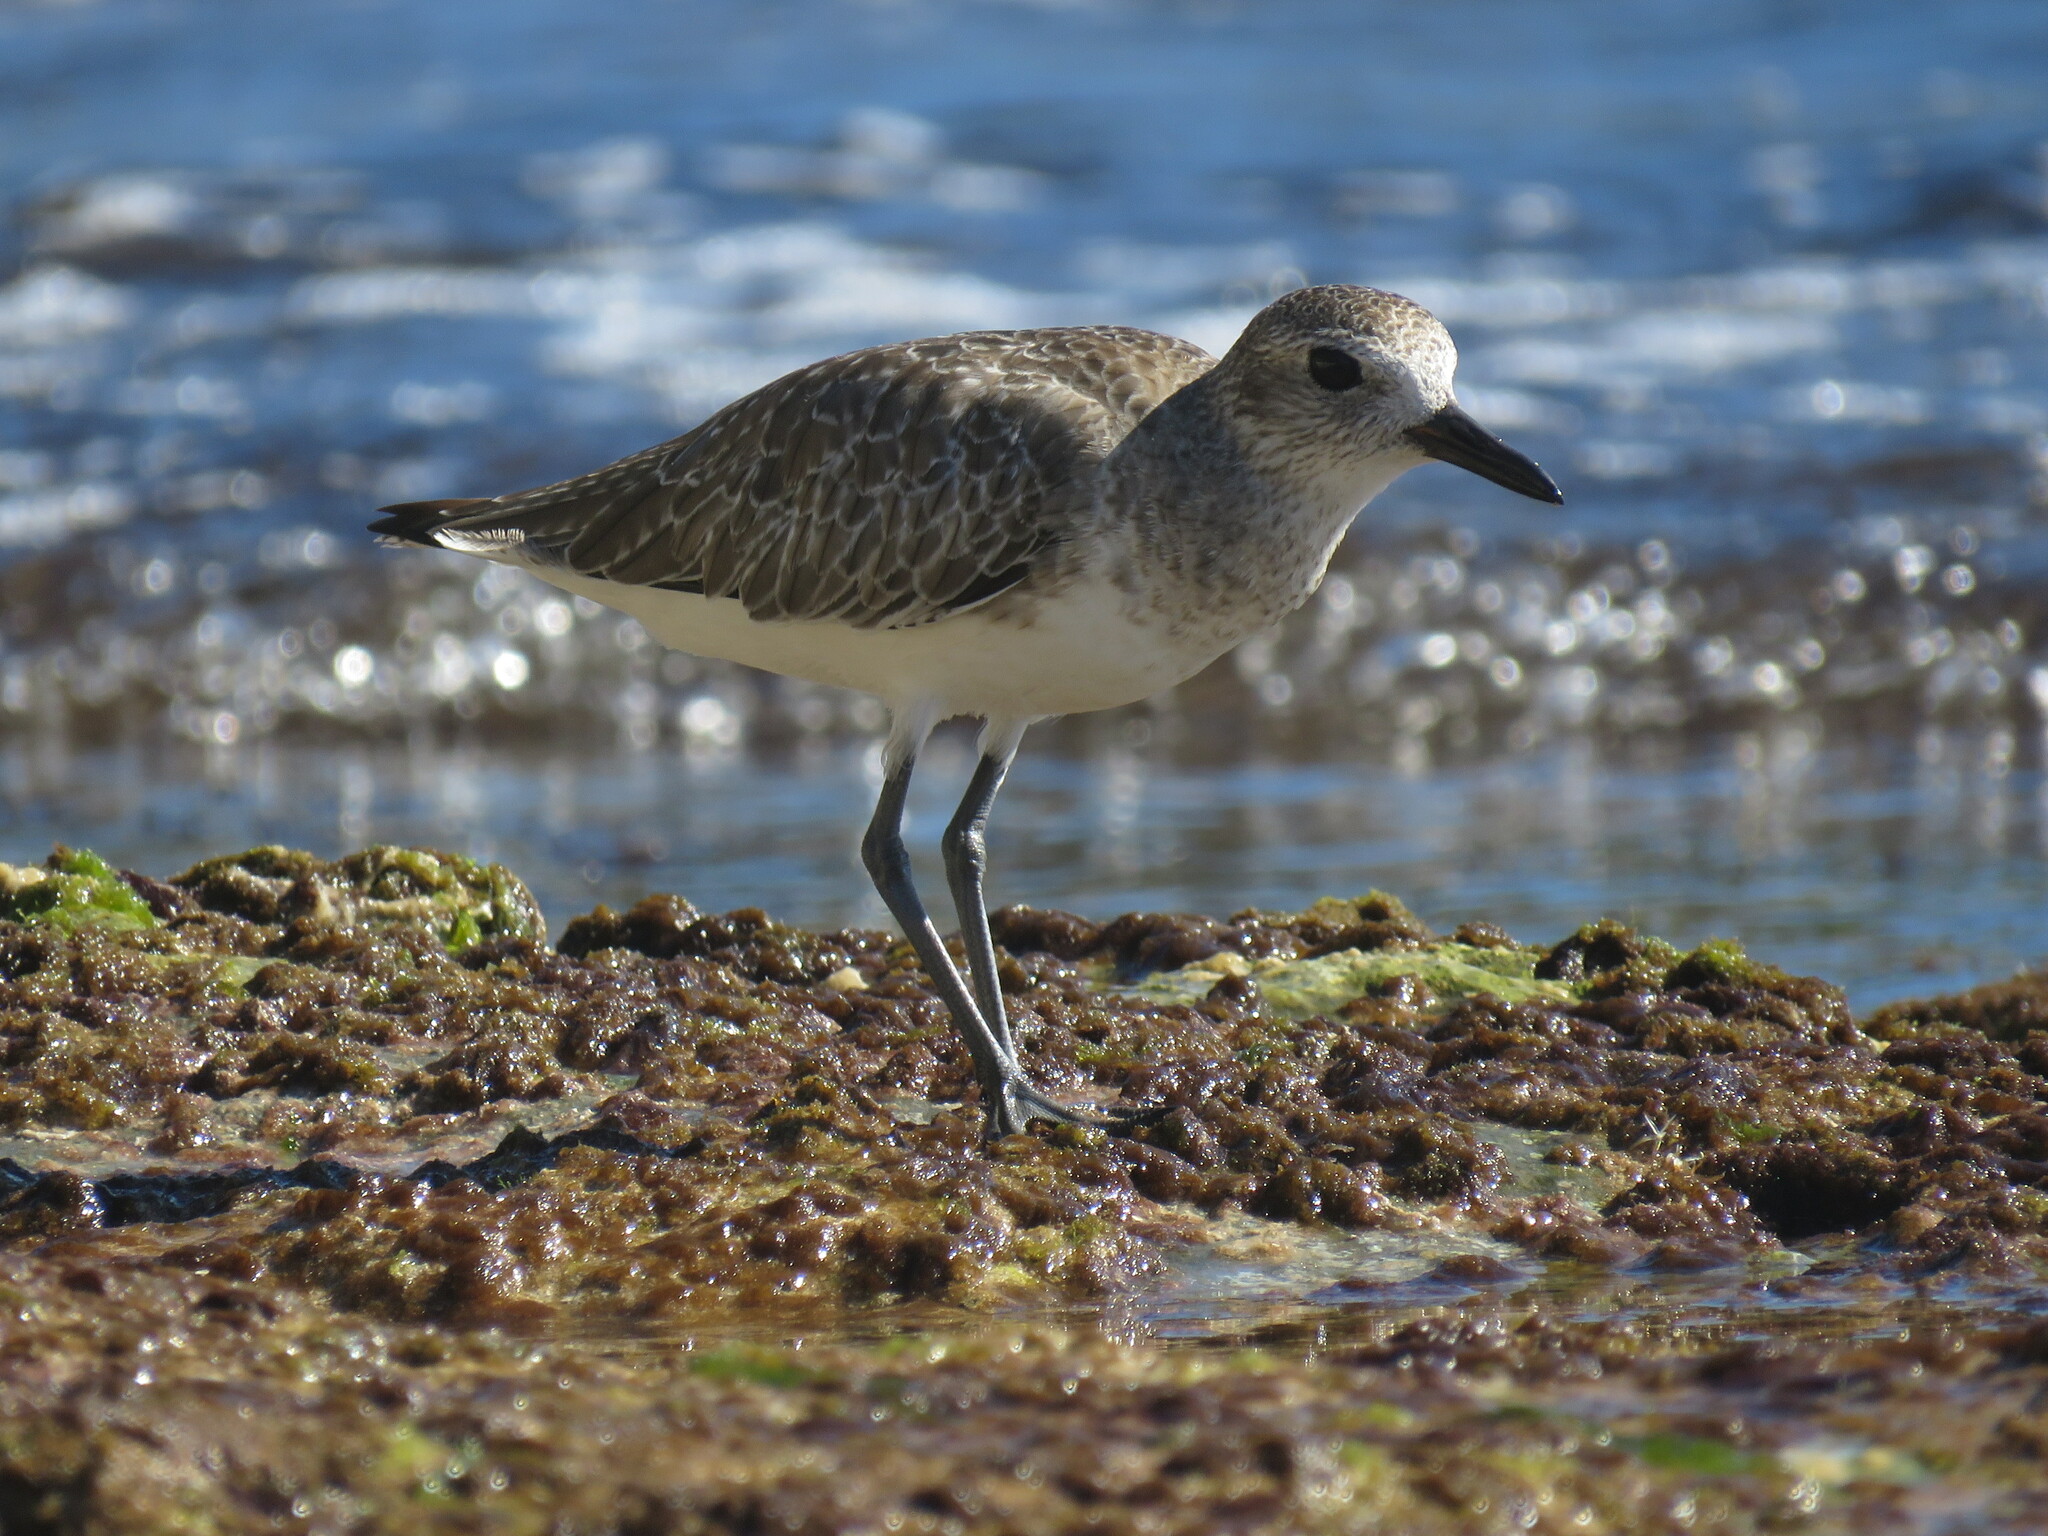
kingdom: Animalia
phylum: Chordata
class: Aves
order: Charadriiformes
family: Charadriidae
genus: Pluvialis
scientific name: Pluvialis squatarola
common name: Grey plover
